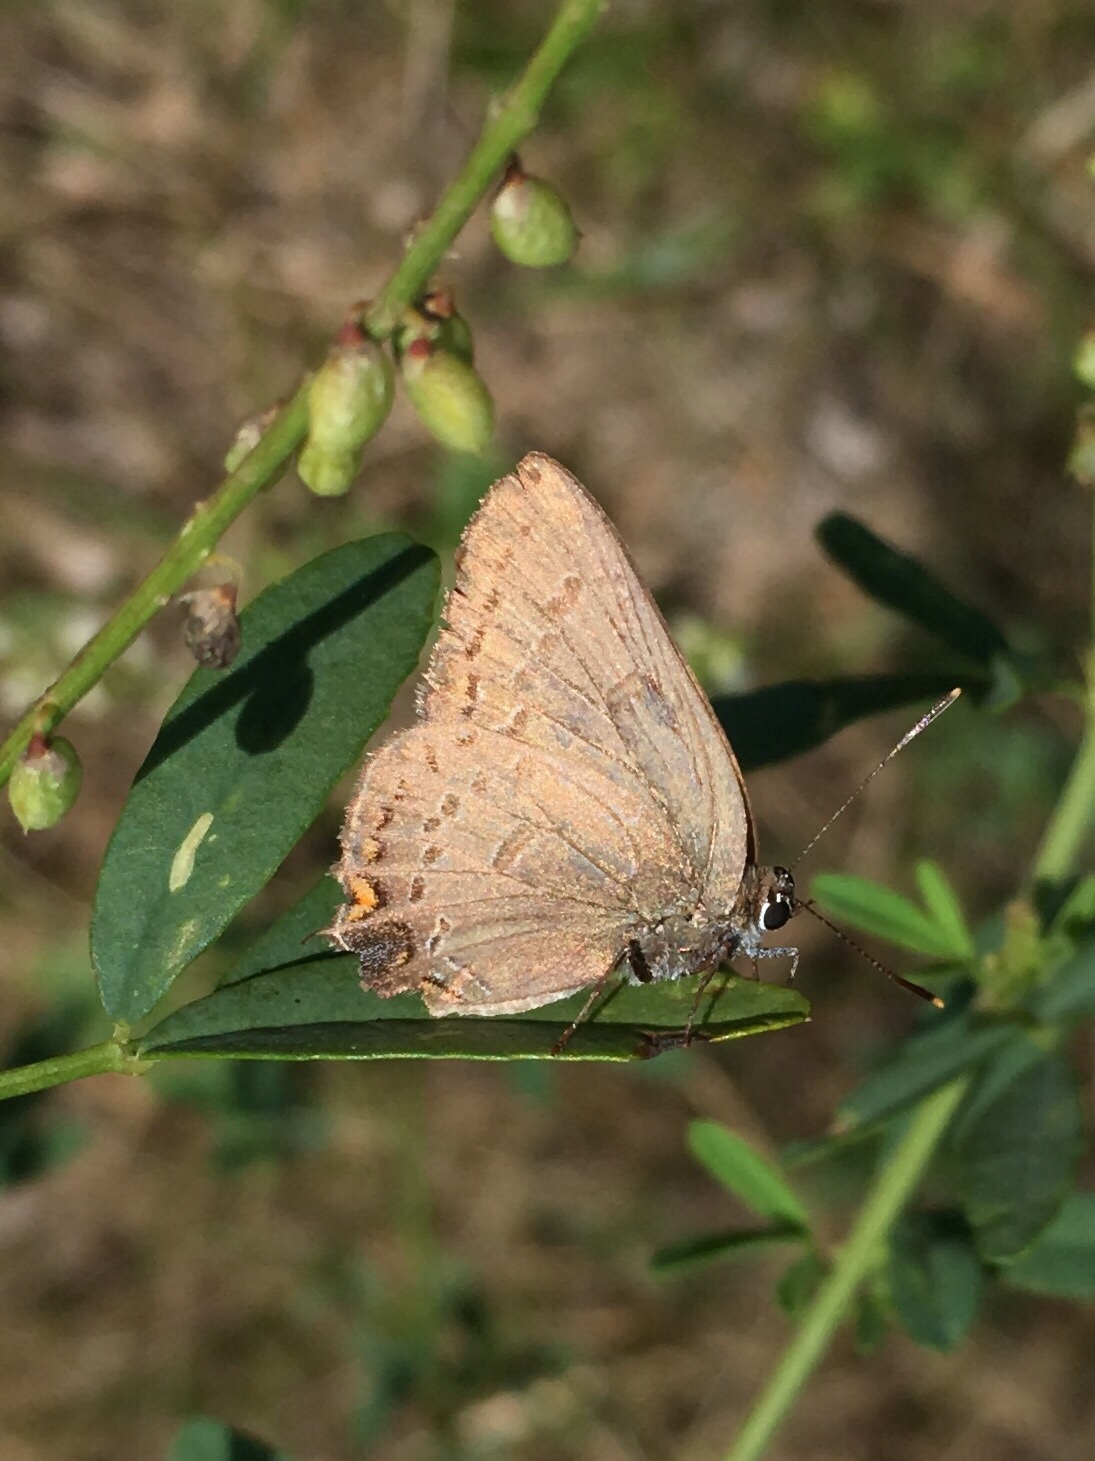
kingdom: Animalia
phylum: Arthropoda
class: Insecta
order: Lepidoptera
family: Lycaenidae
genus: Satyrium
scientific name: Satyrium edwardsii
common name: Edwards' hairstreak
